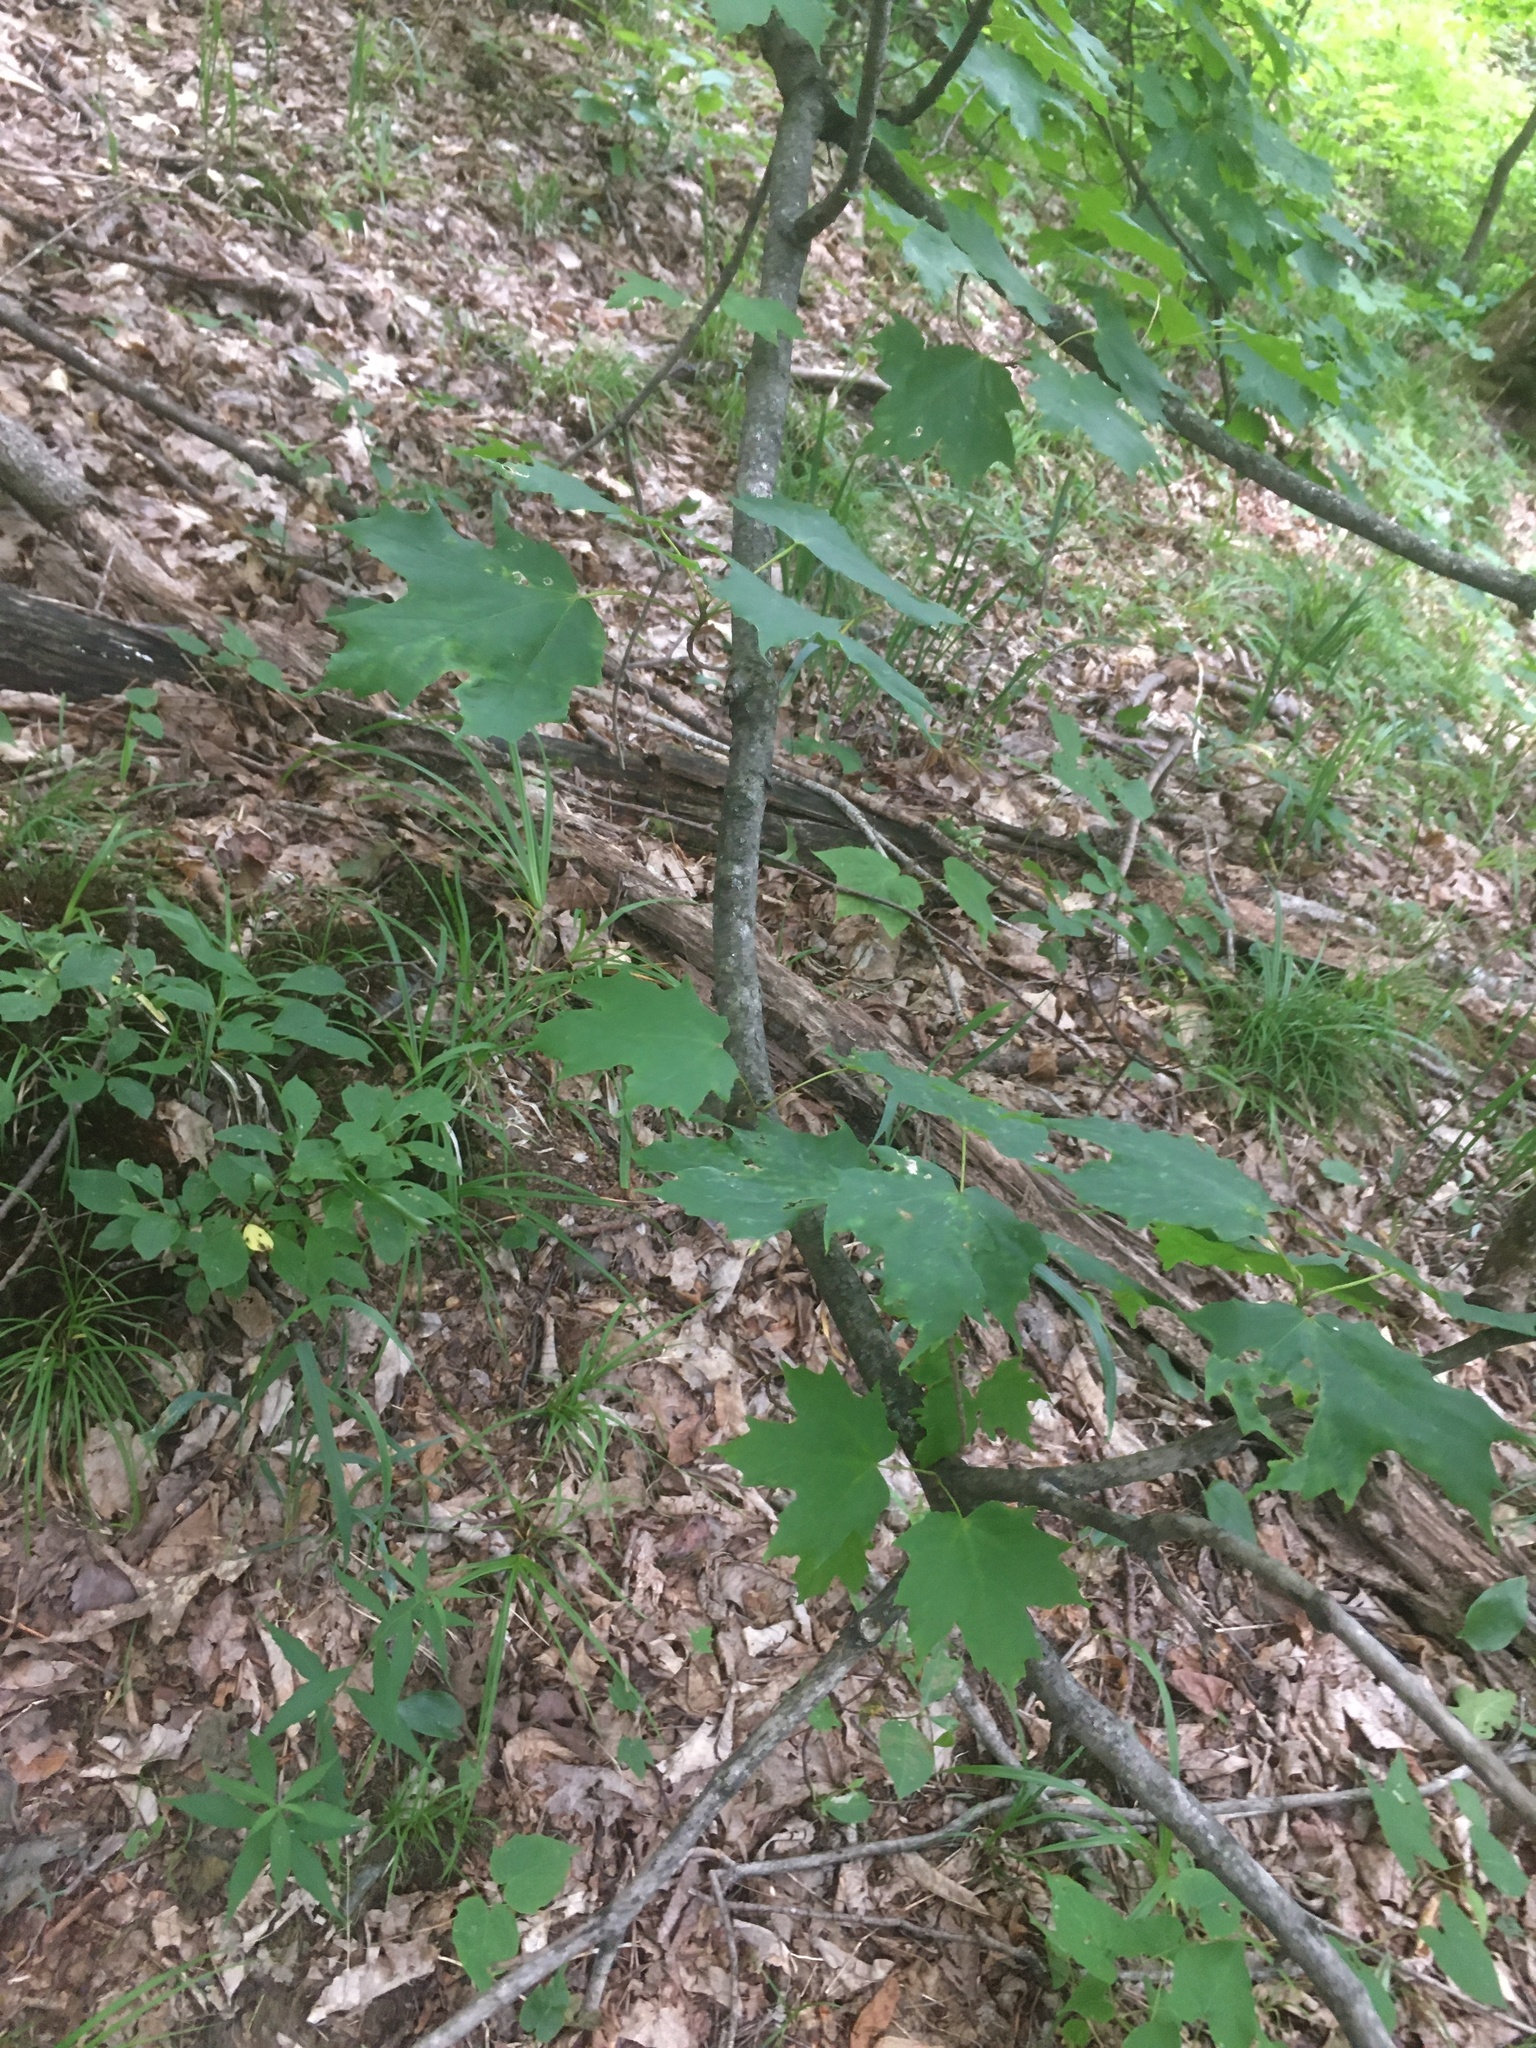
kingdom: Plantae
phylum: Tracheophyta
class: Magnoliopsida
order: Sapindales
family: Sapindaceae
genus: Acer
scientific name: Acer saccharum
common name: Sugar maple
